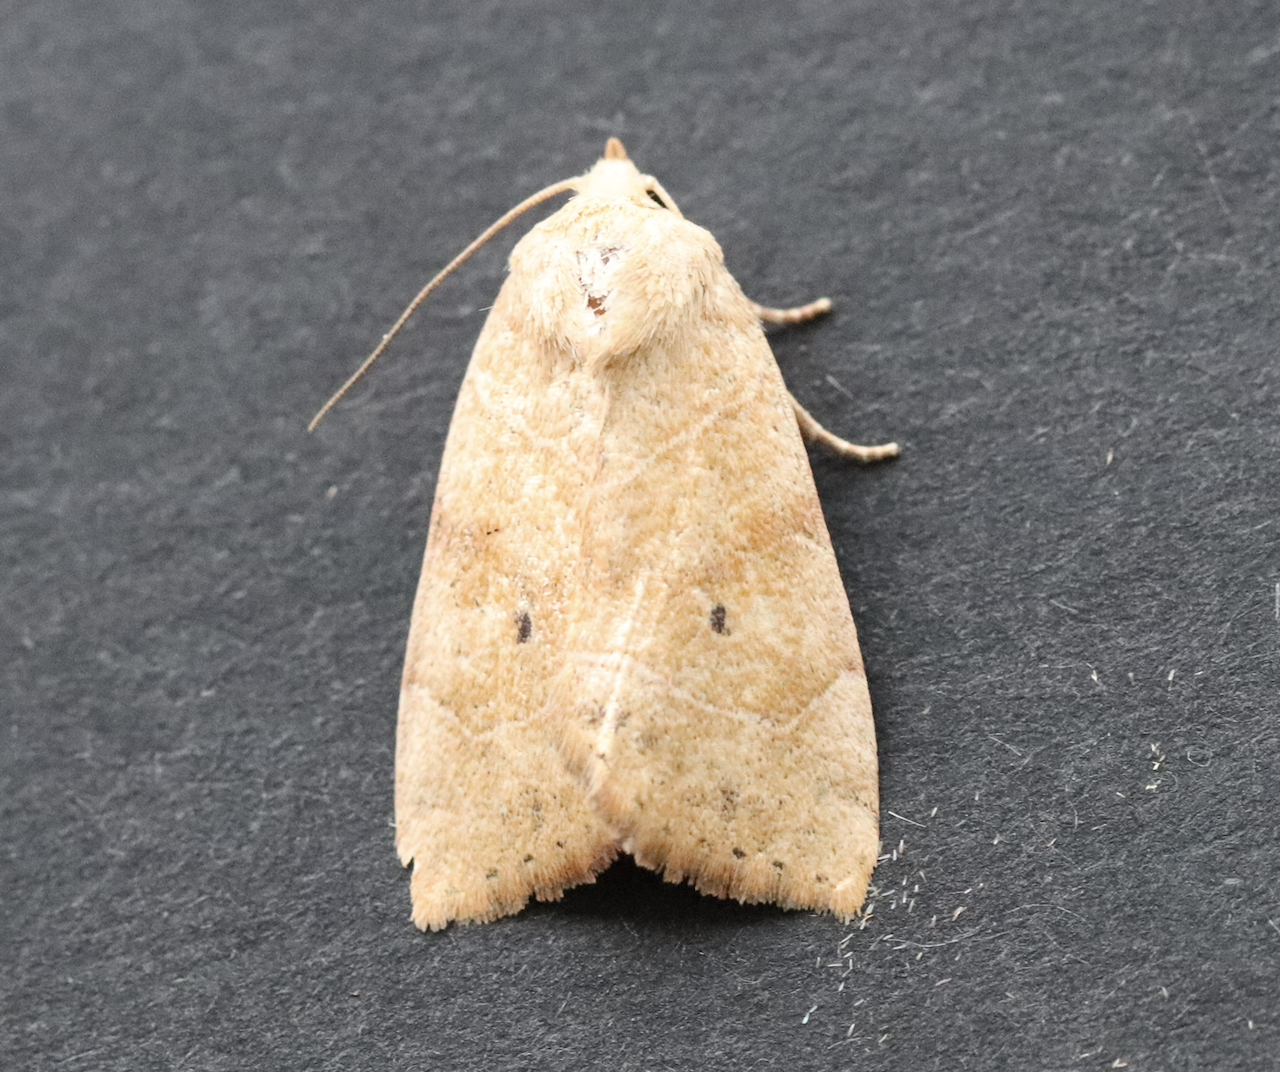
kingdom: Animalia
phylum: Arthropoda
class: Insecta
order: Lepidoptera
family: Noctuidae
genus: Cosmia
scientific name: Cosmia trapezina
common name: Dun-bar
